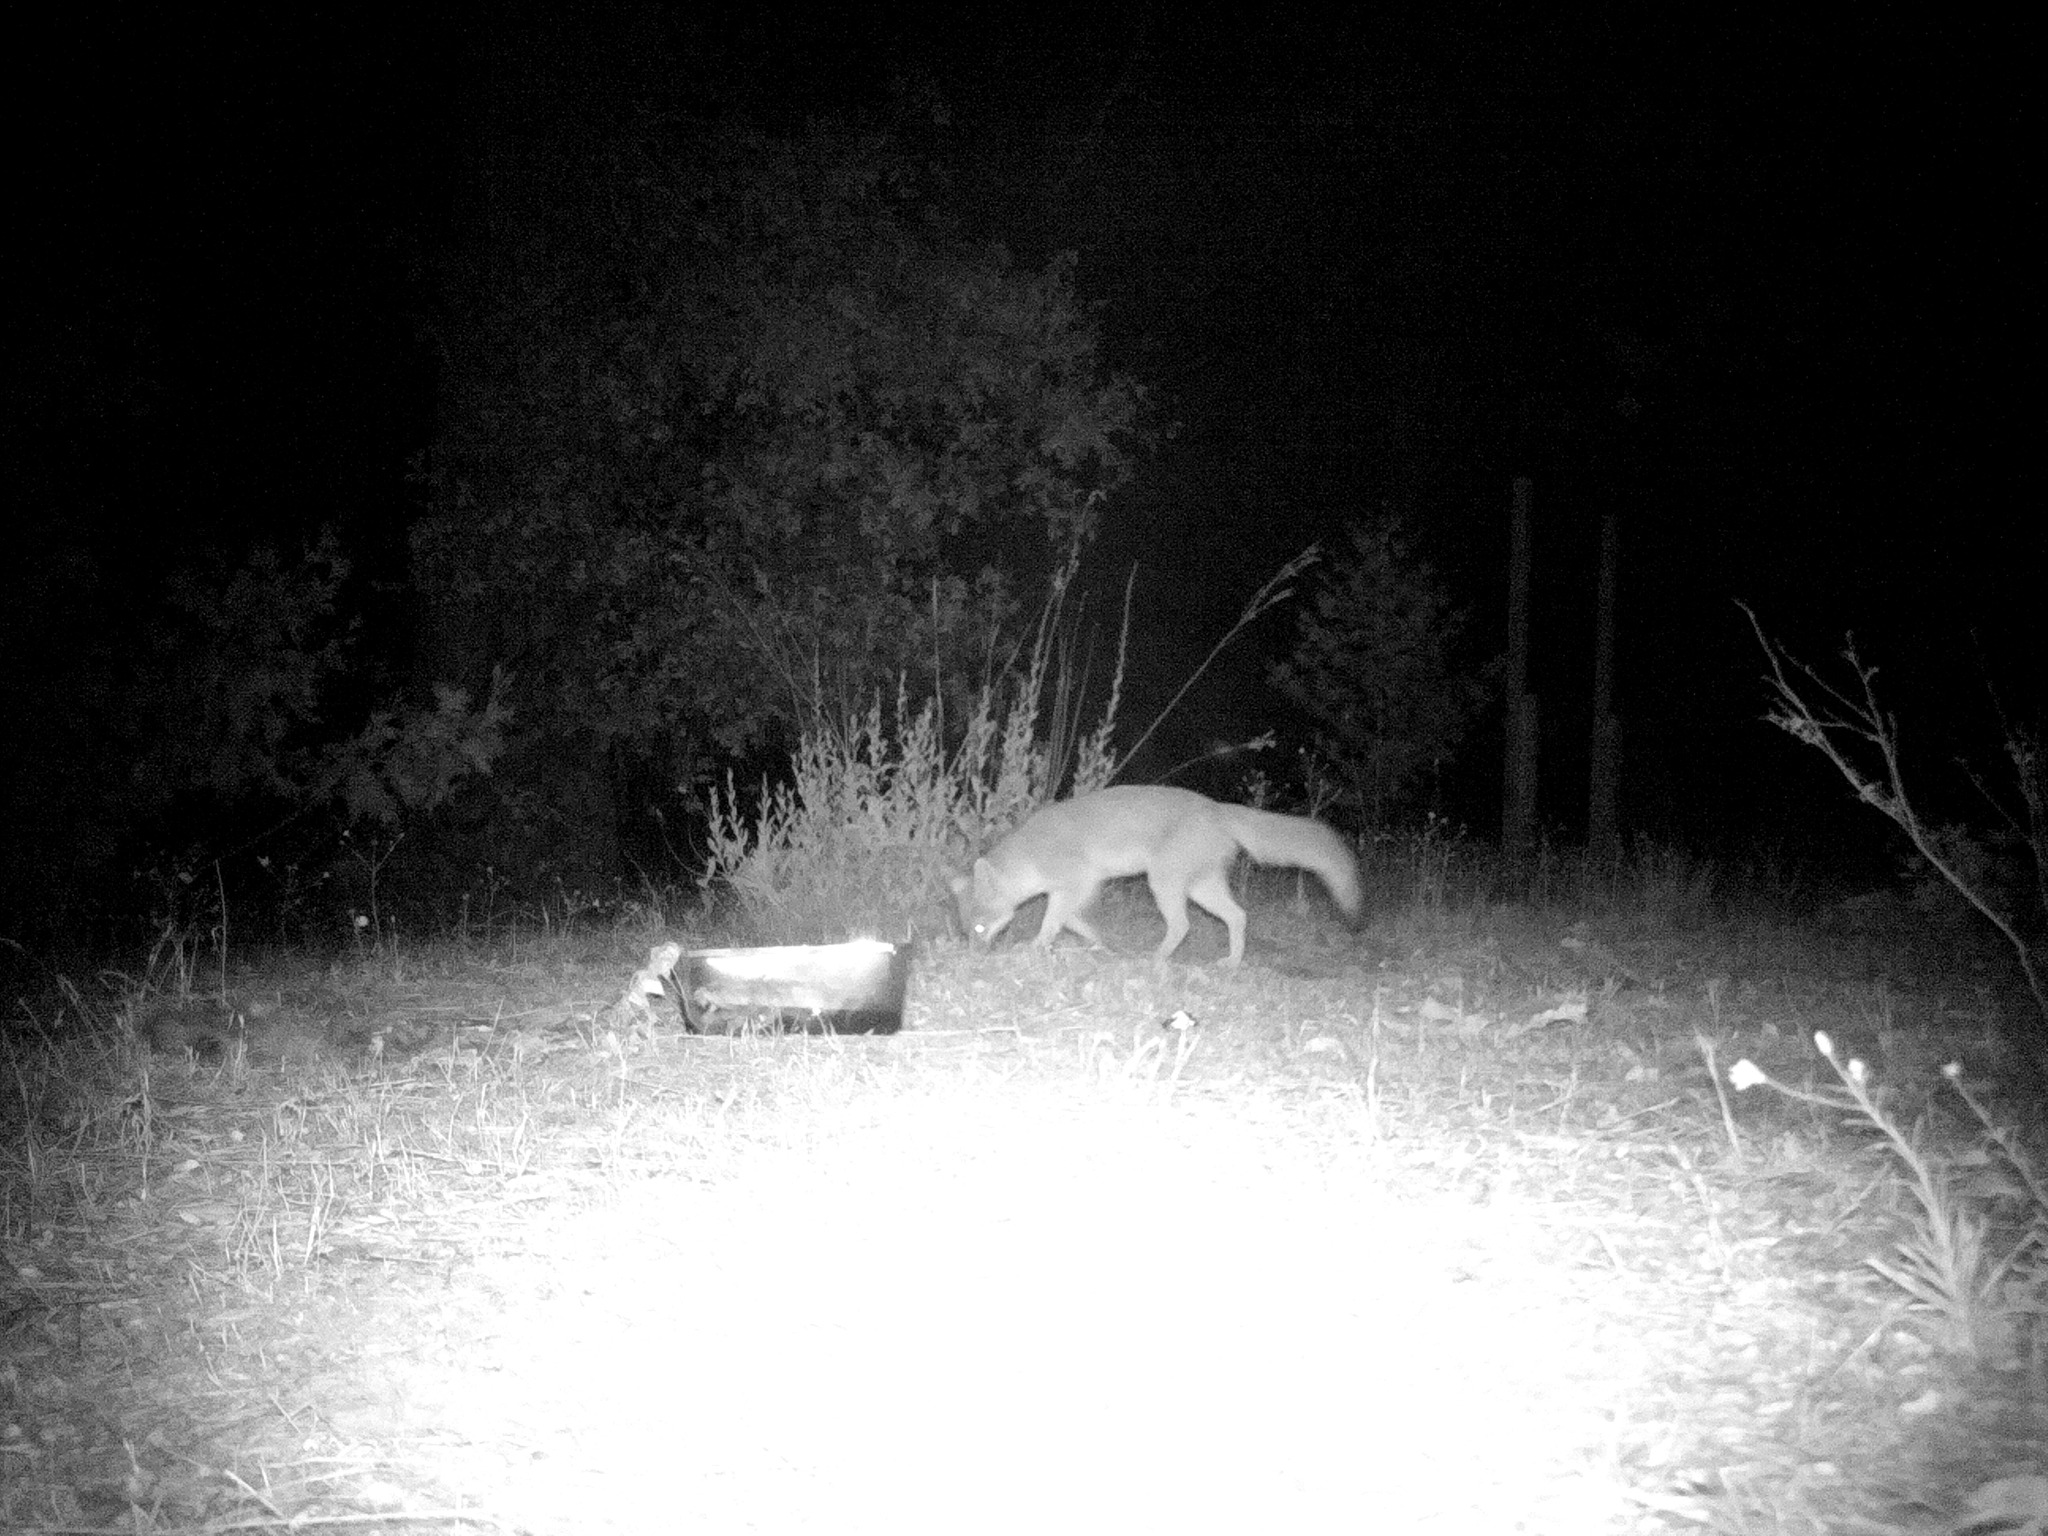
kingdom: Animalia
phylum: Chordata
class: Mammalia
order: Carnivora
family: Canidae
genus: Urocyon
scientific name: Urocyon cinereoargenteus
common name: Gray fox
